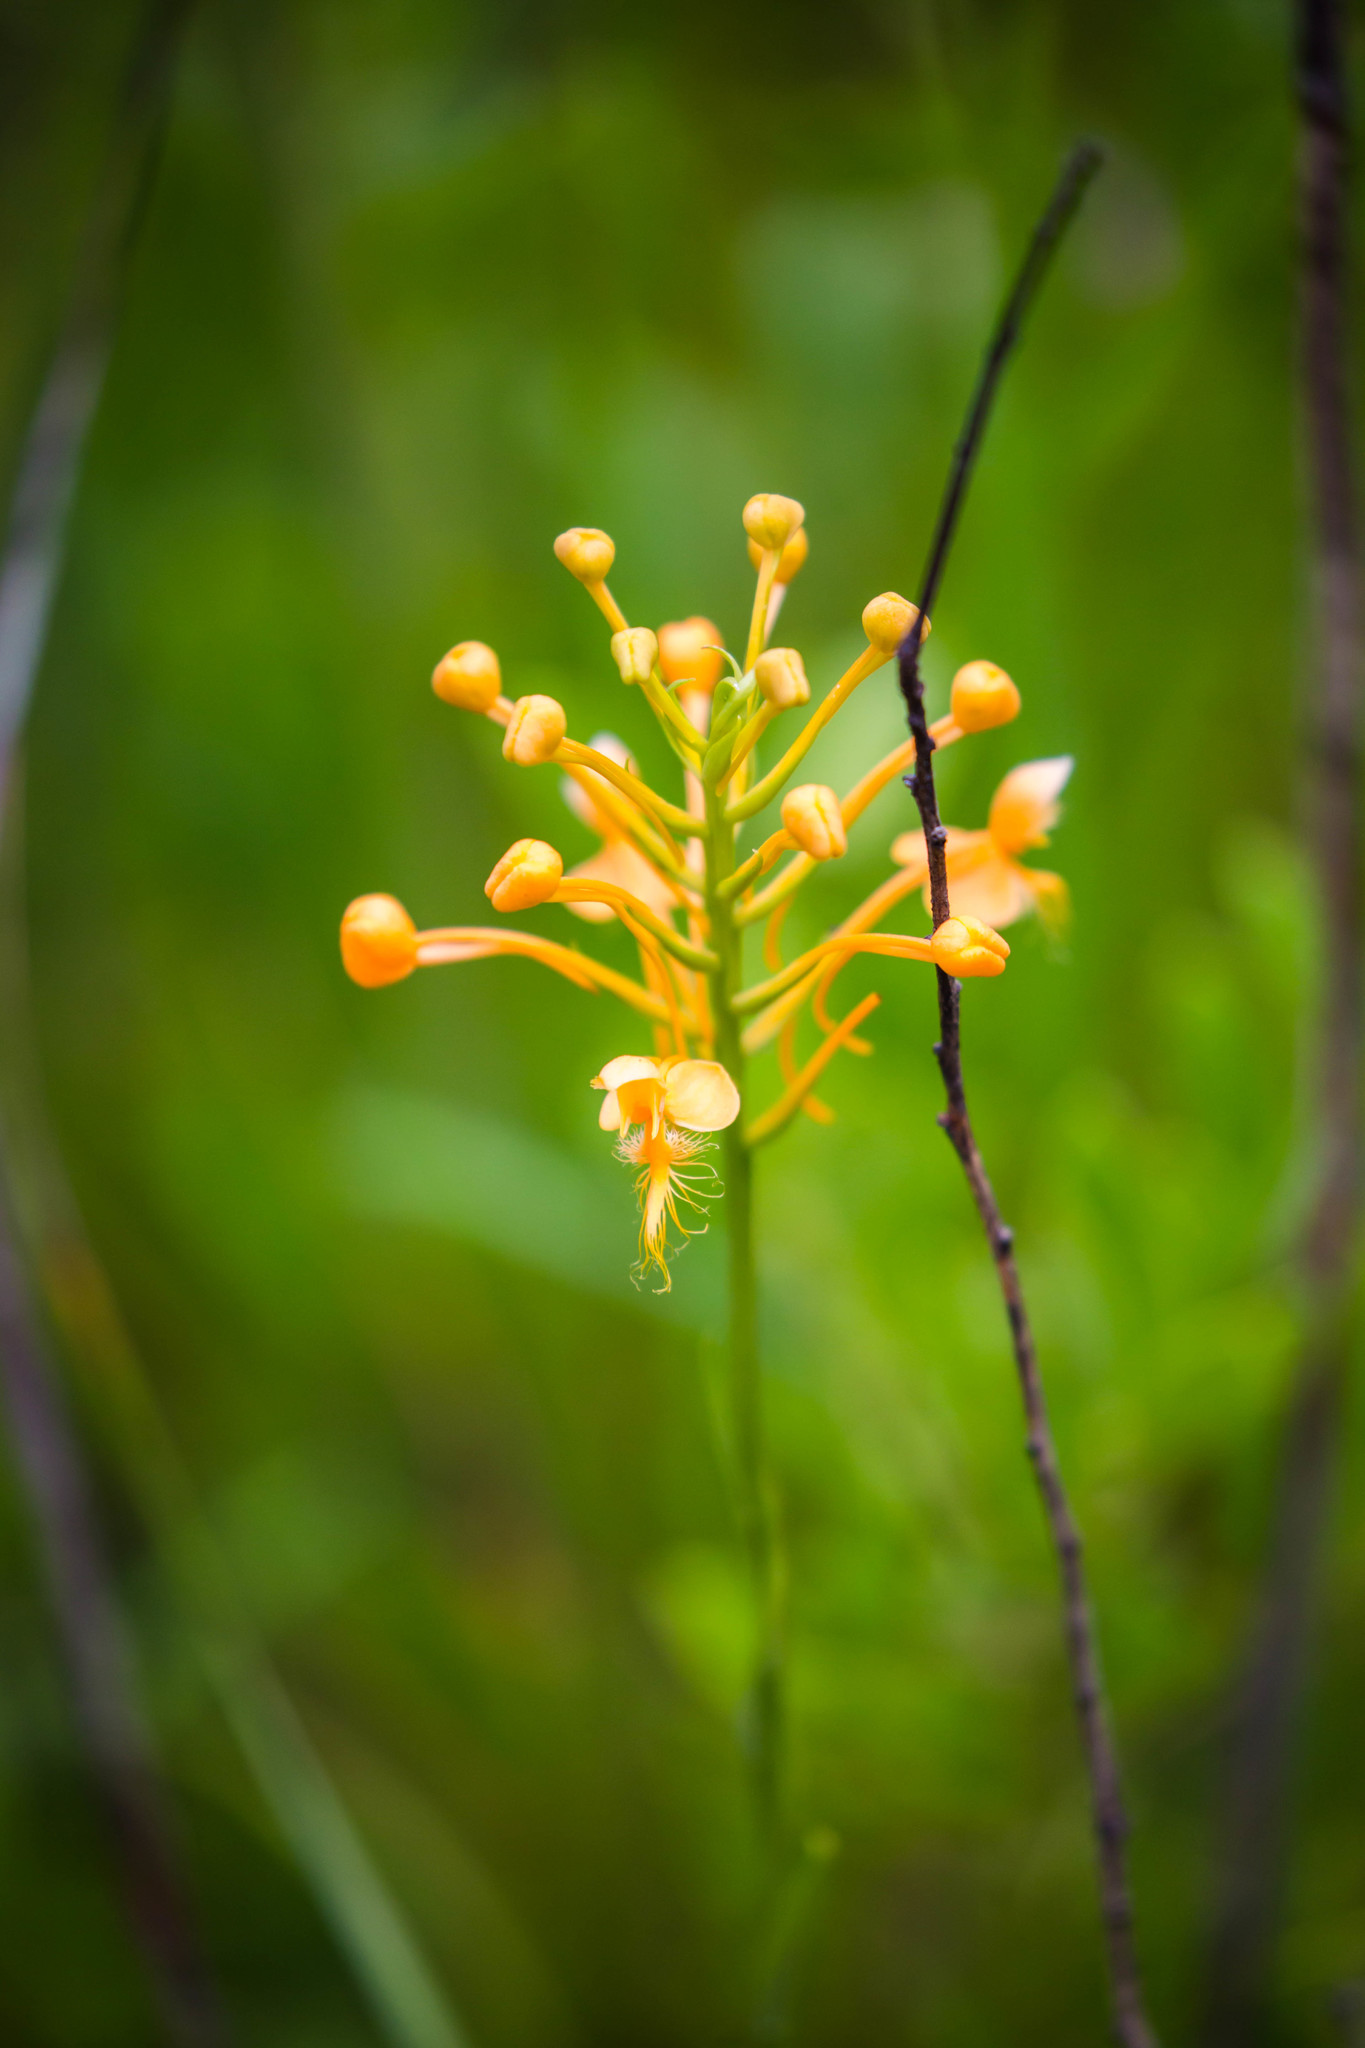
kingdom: Plantae
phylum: Tracheophyta
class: Liliopsida
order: Asparagales
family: Orchidaceae
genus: Platanthera
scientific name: Platanthera ciliaris
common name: Yellow fringed orchid
